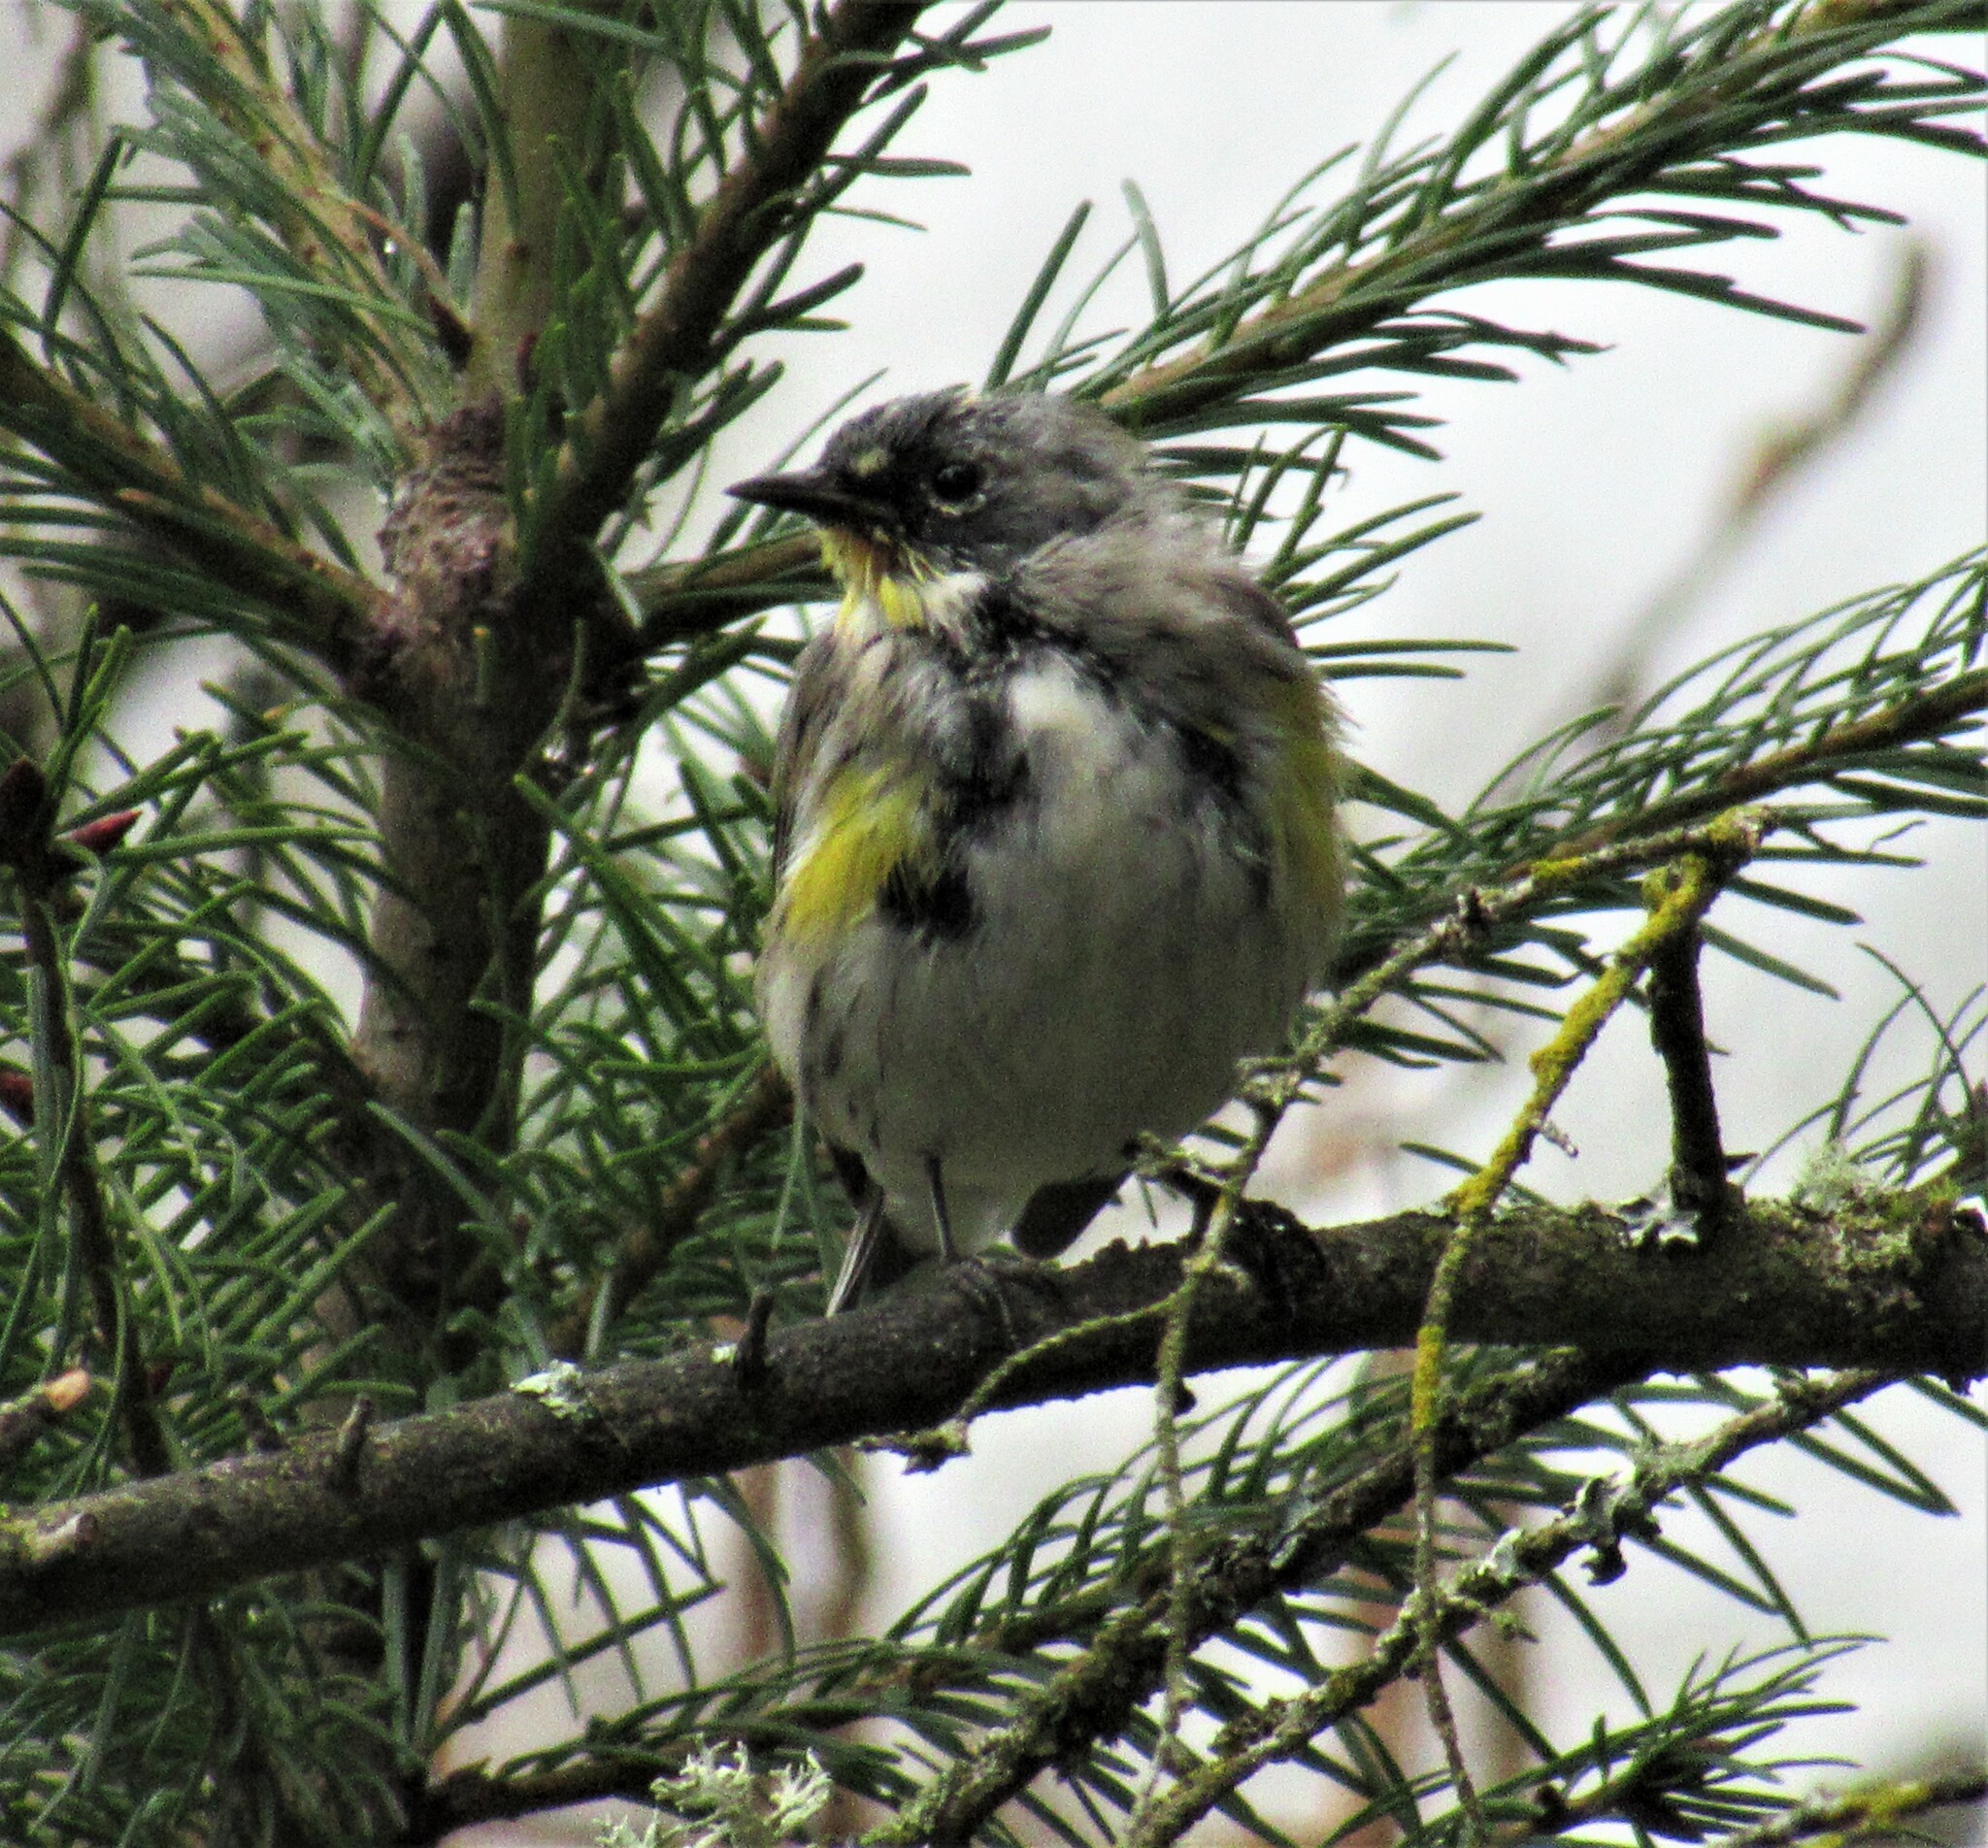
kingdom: Animalia
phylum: Chordata
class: Aves
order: Passeriformes
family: Parulidae
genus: Setophaga
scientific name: Setophaga auduboni
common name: Audubon's warbler
